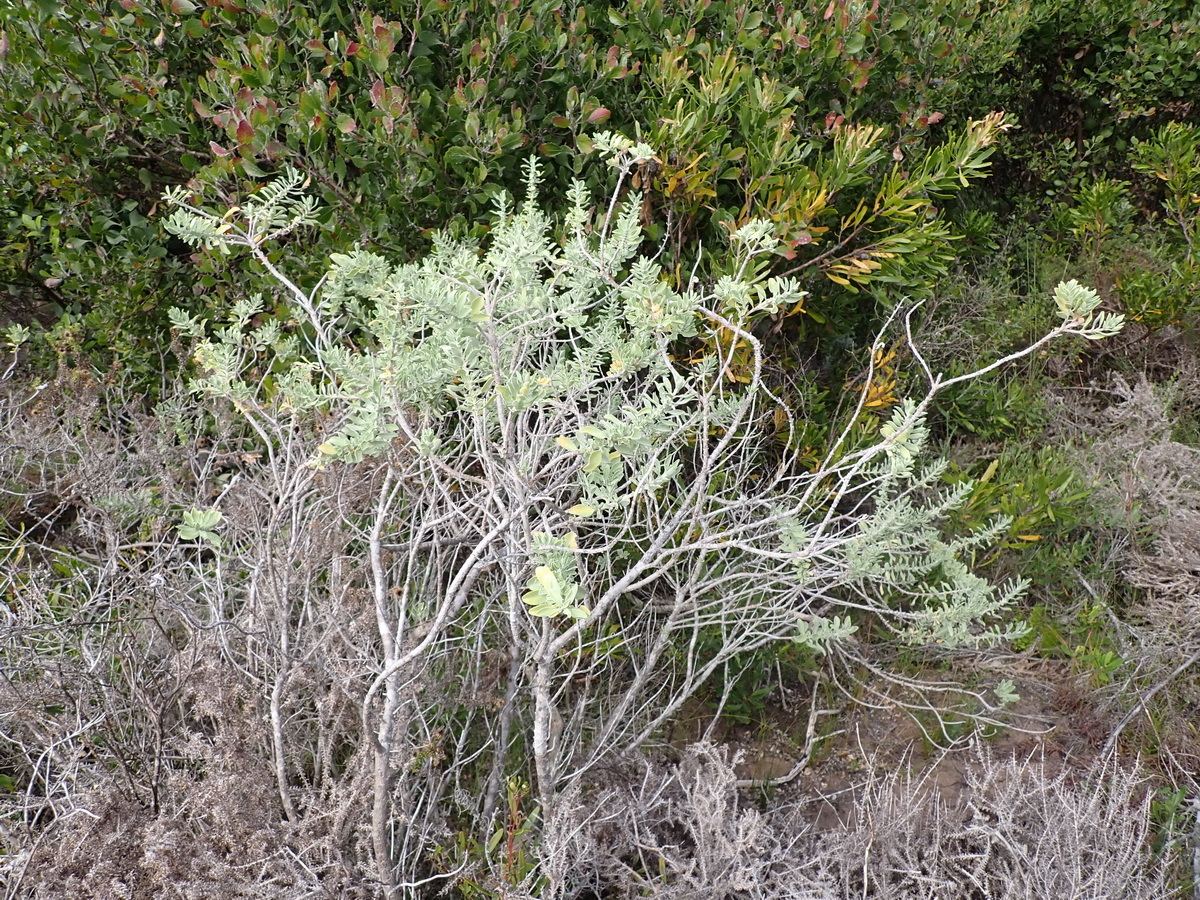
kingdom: Plantae
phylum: Tracheophyta
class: Magnoliopsida
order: Lamiales
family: Lamiaceae
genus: Salvia
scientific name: Salvia aurea
